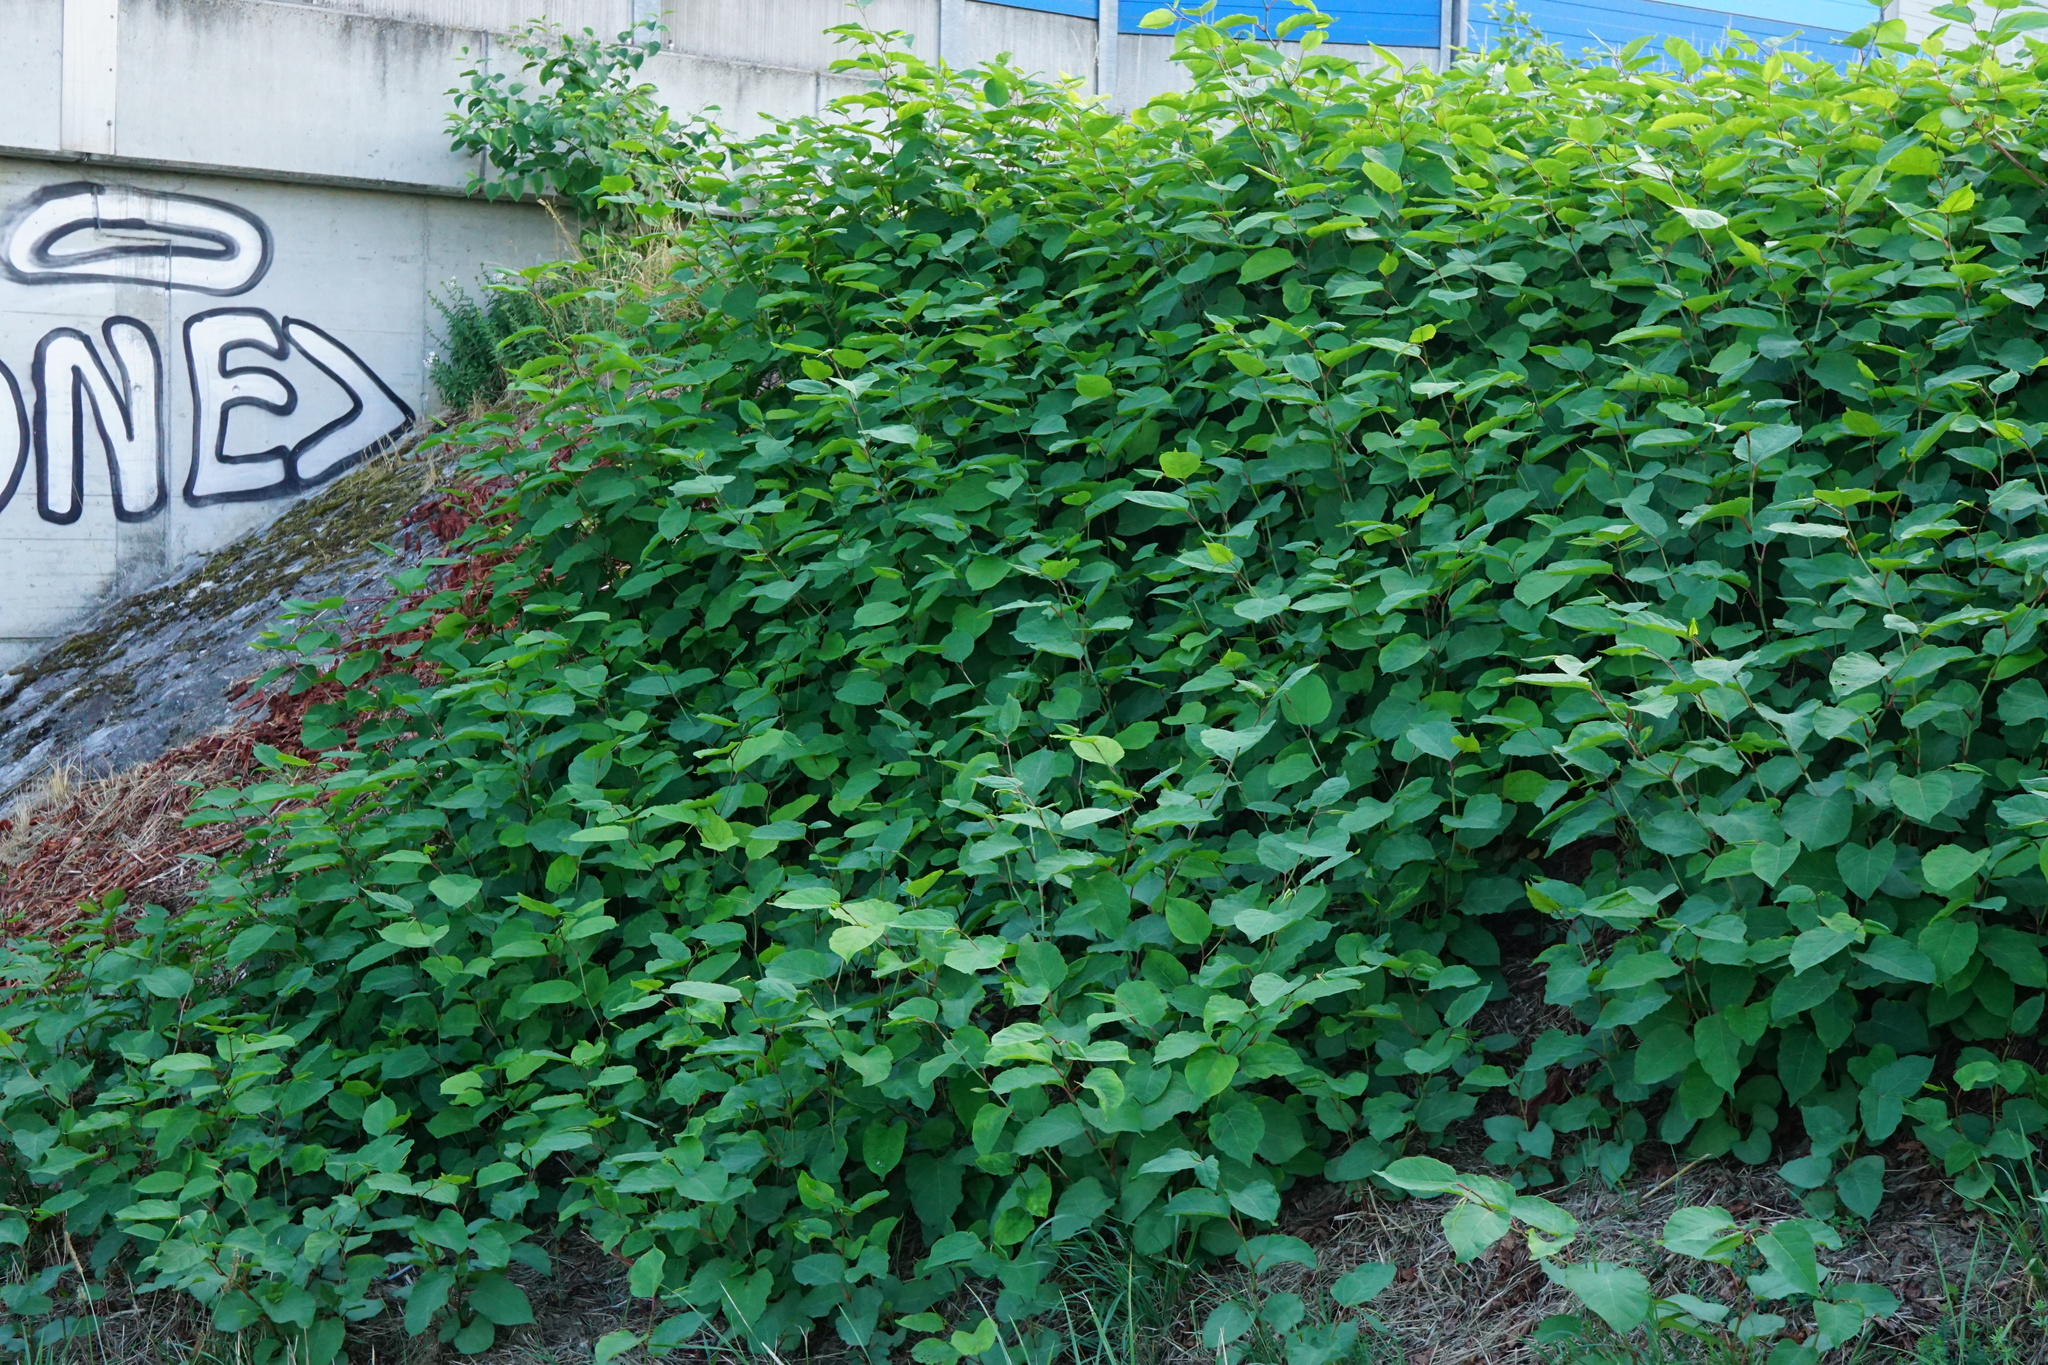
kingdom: Plantae
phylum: Tracheophyta
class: Magnoliopsida
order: Caryophyllales
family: Polygonaceae
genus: Reynoutria
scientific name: Reynoutria bohemica
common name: Bohemian knotweed
